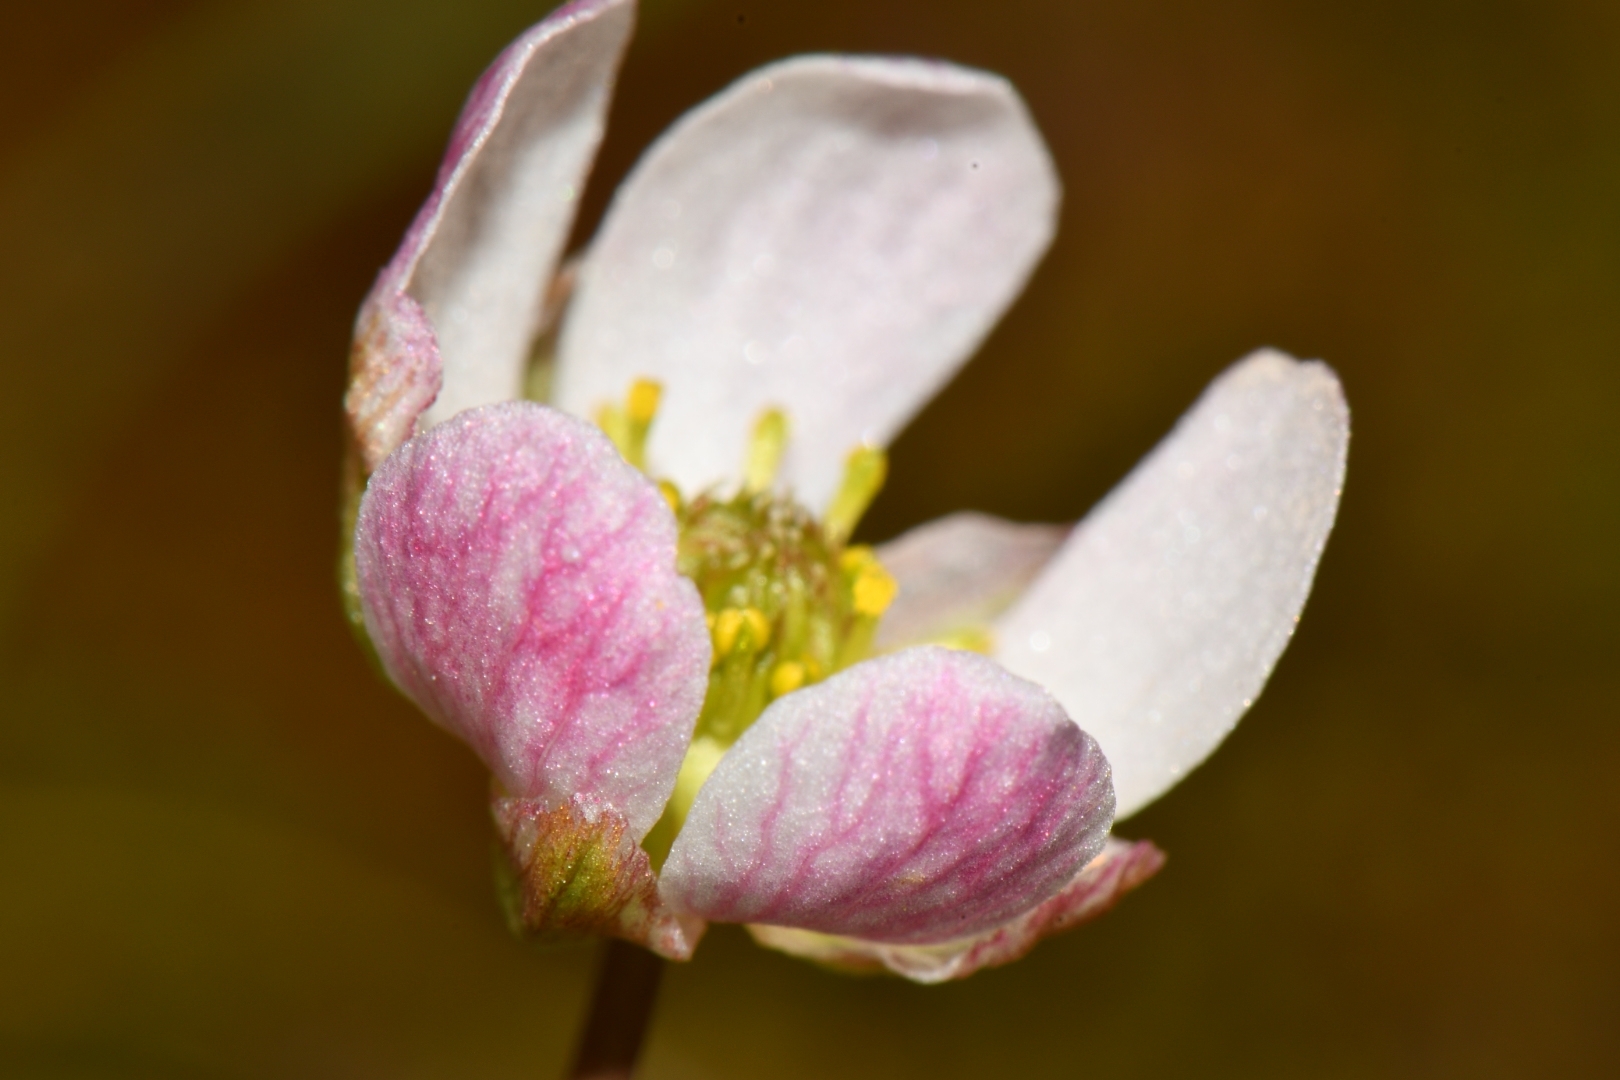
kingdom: Plantae
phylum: Tracheophyta
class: Magnoliopsida
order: Ranunculales
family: Ranunculaceae
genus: Beckwithia
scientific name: Beckwithia andersonii
